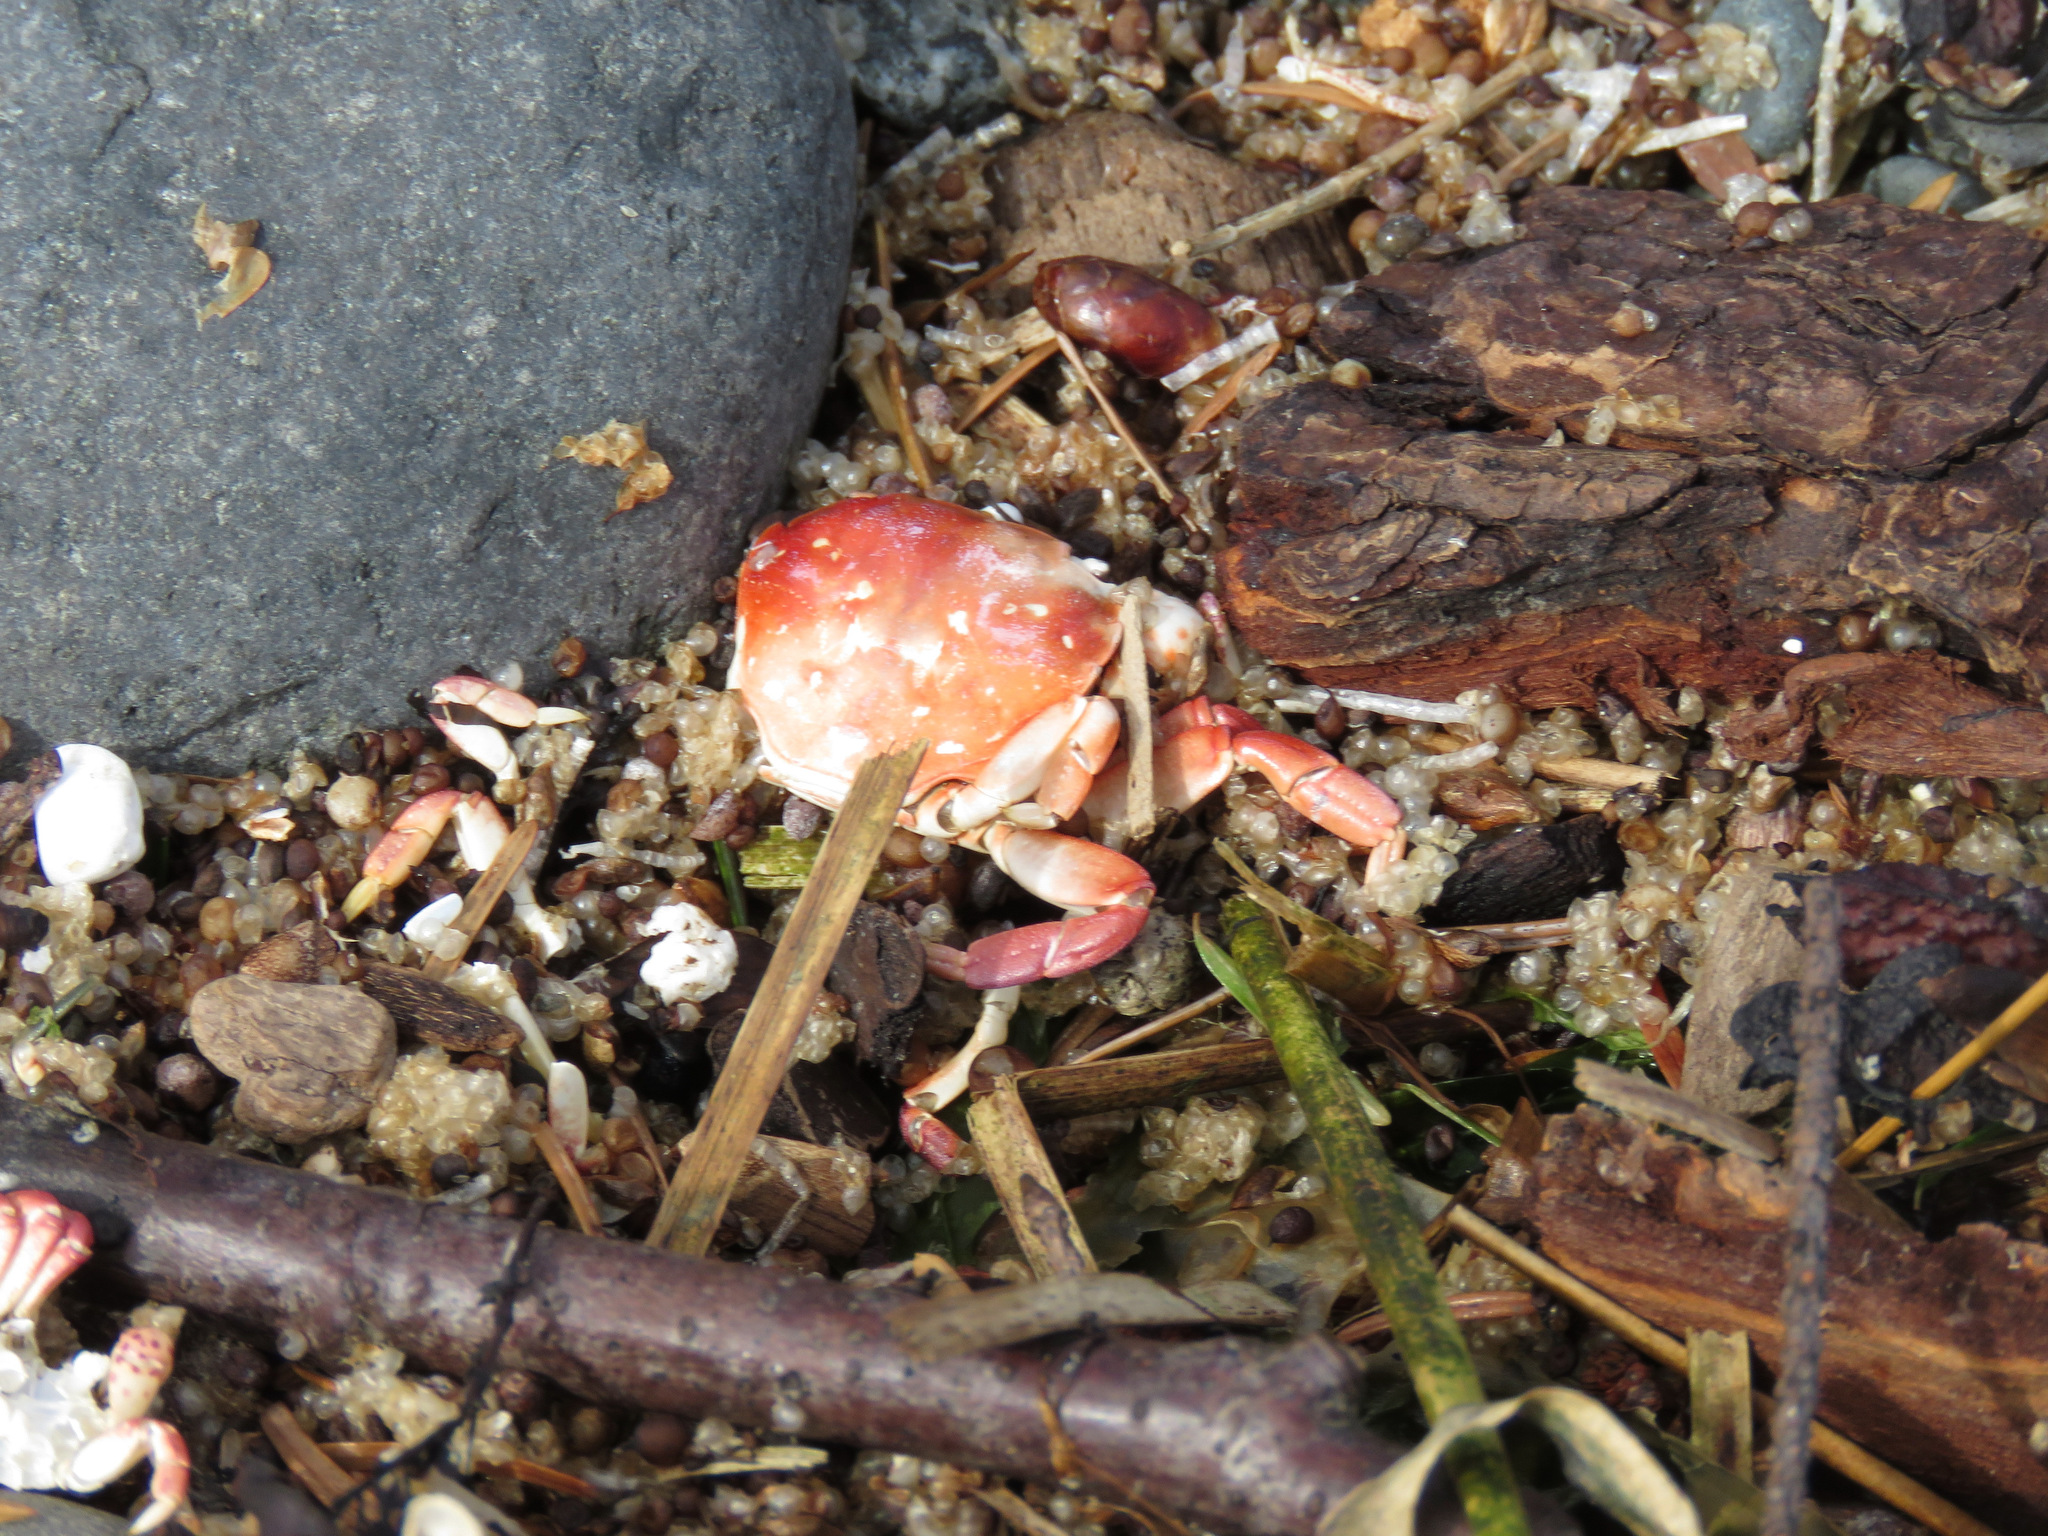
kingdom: Animalia
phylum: Arthropoda
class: Malacostraca
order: Decapoda
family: Varunidae
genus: Hemigrapsus
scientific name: Hemigrapsus nudus
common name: Purple shore crab
